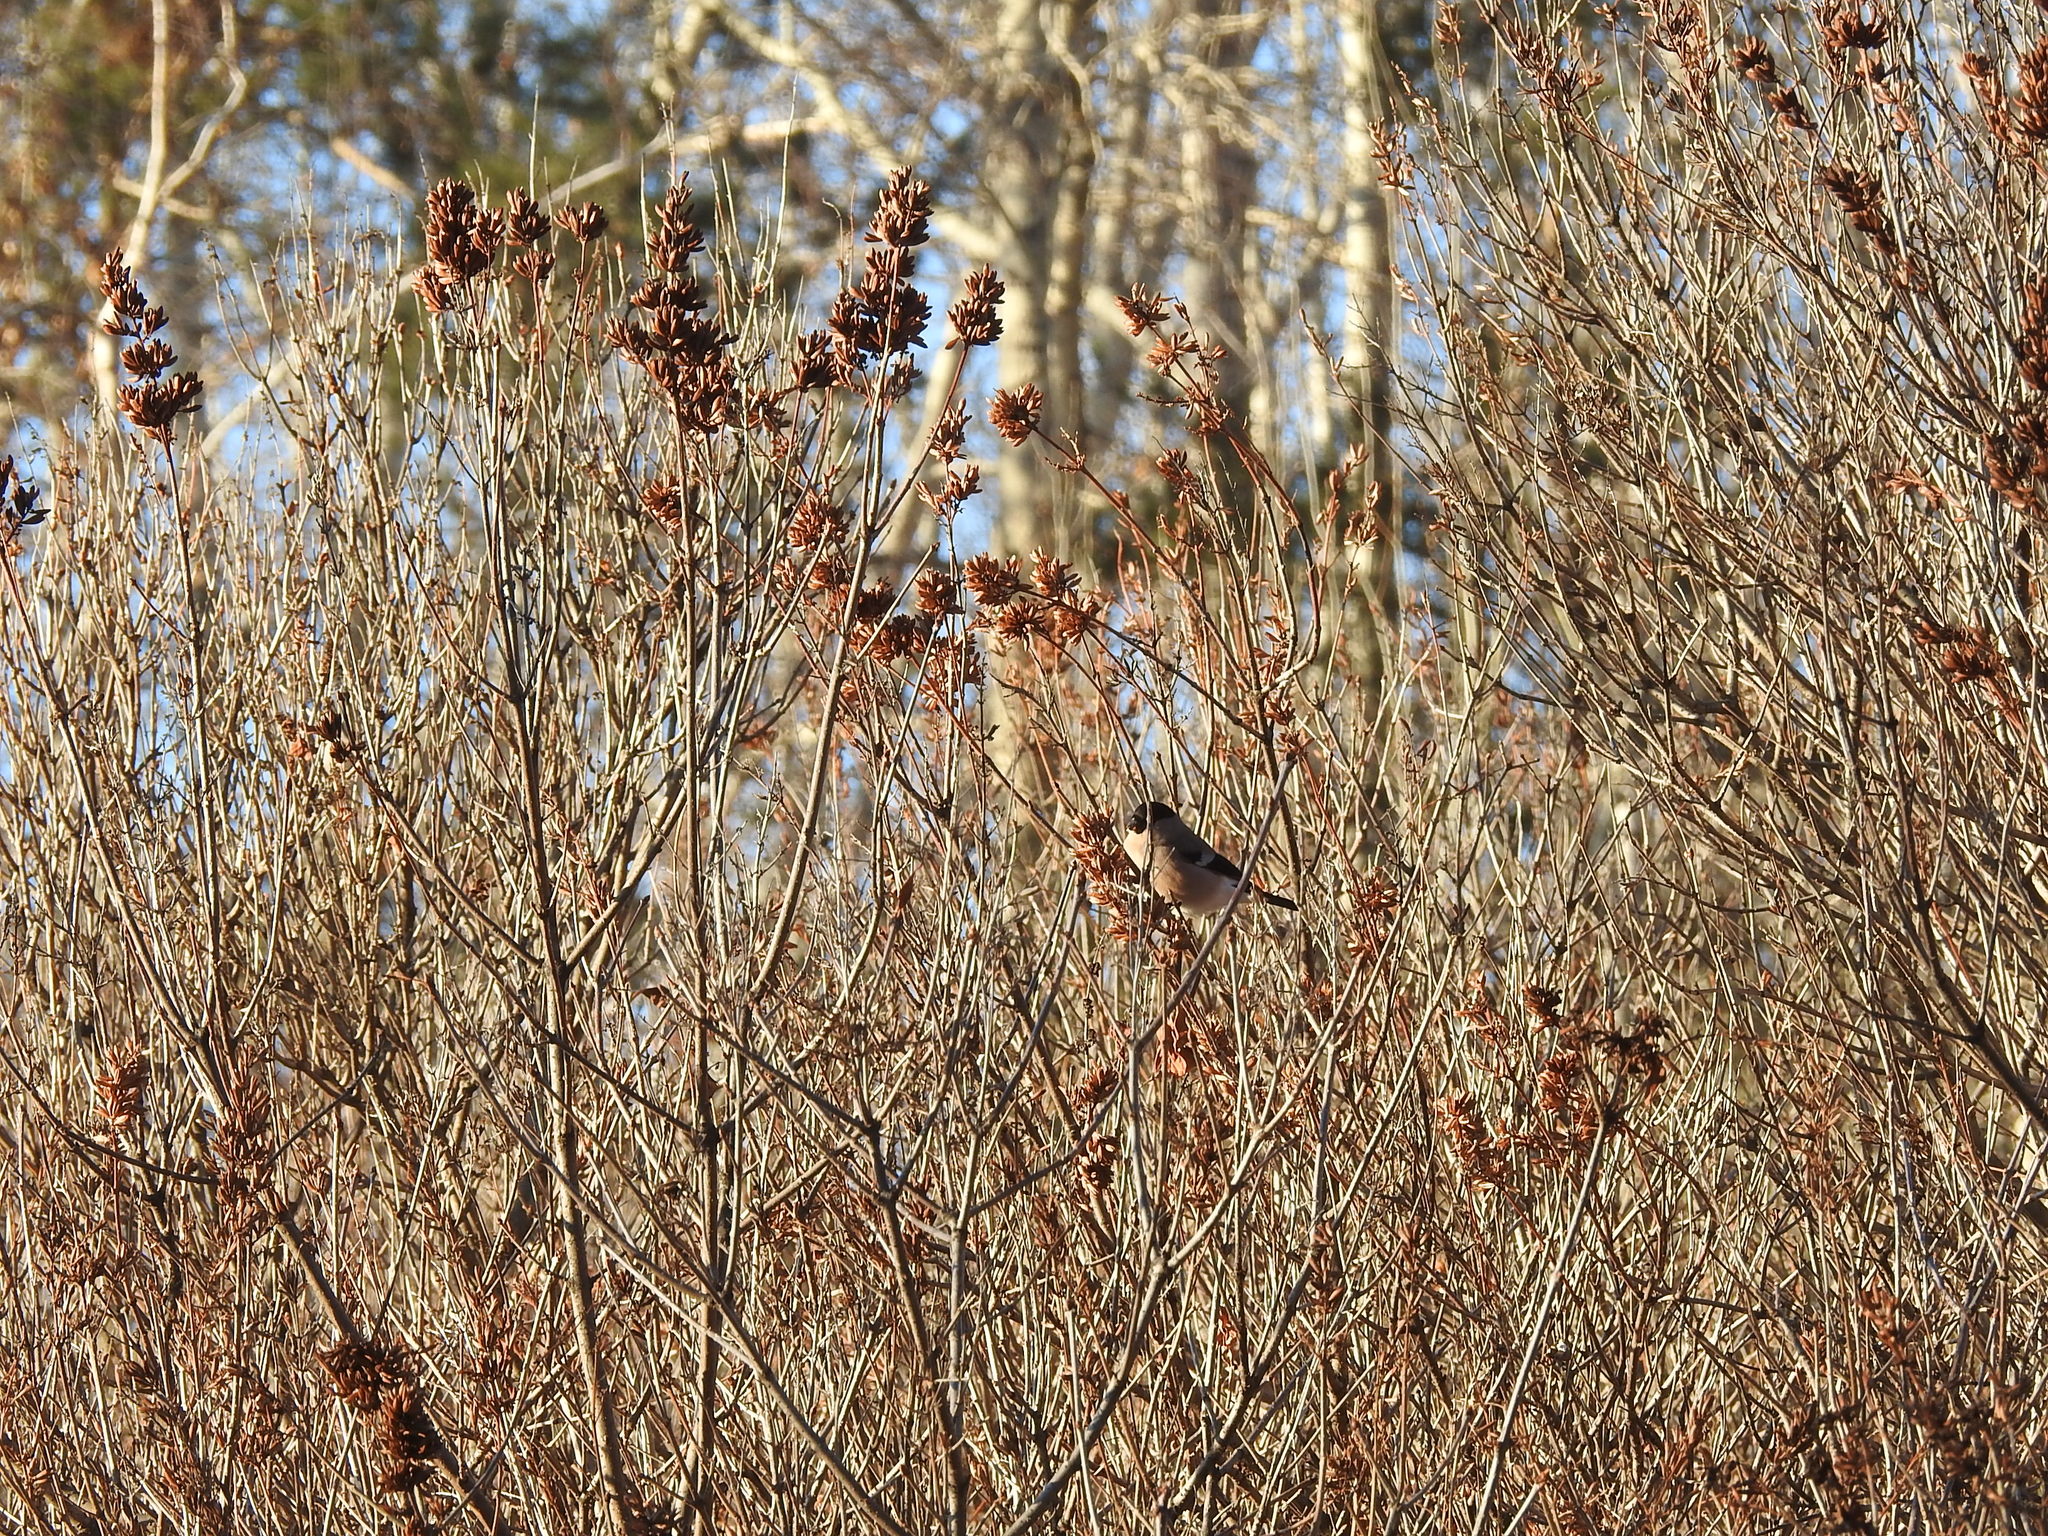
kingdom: Animalia
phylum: Chordata
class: Aves
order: Passeriformes
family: Fringillidae
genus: Pyrrhula
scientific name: Pyrrhula pyrrhula
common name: Eurasian bullfinch
